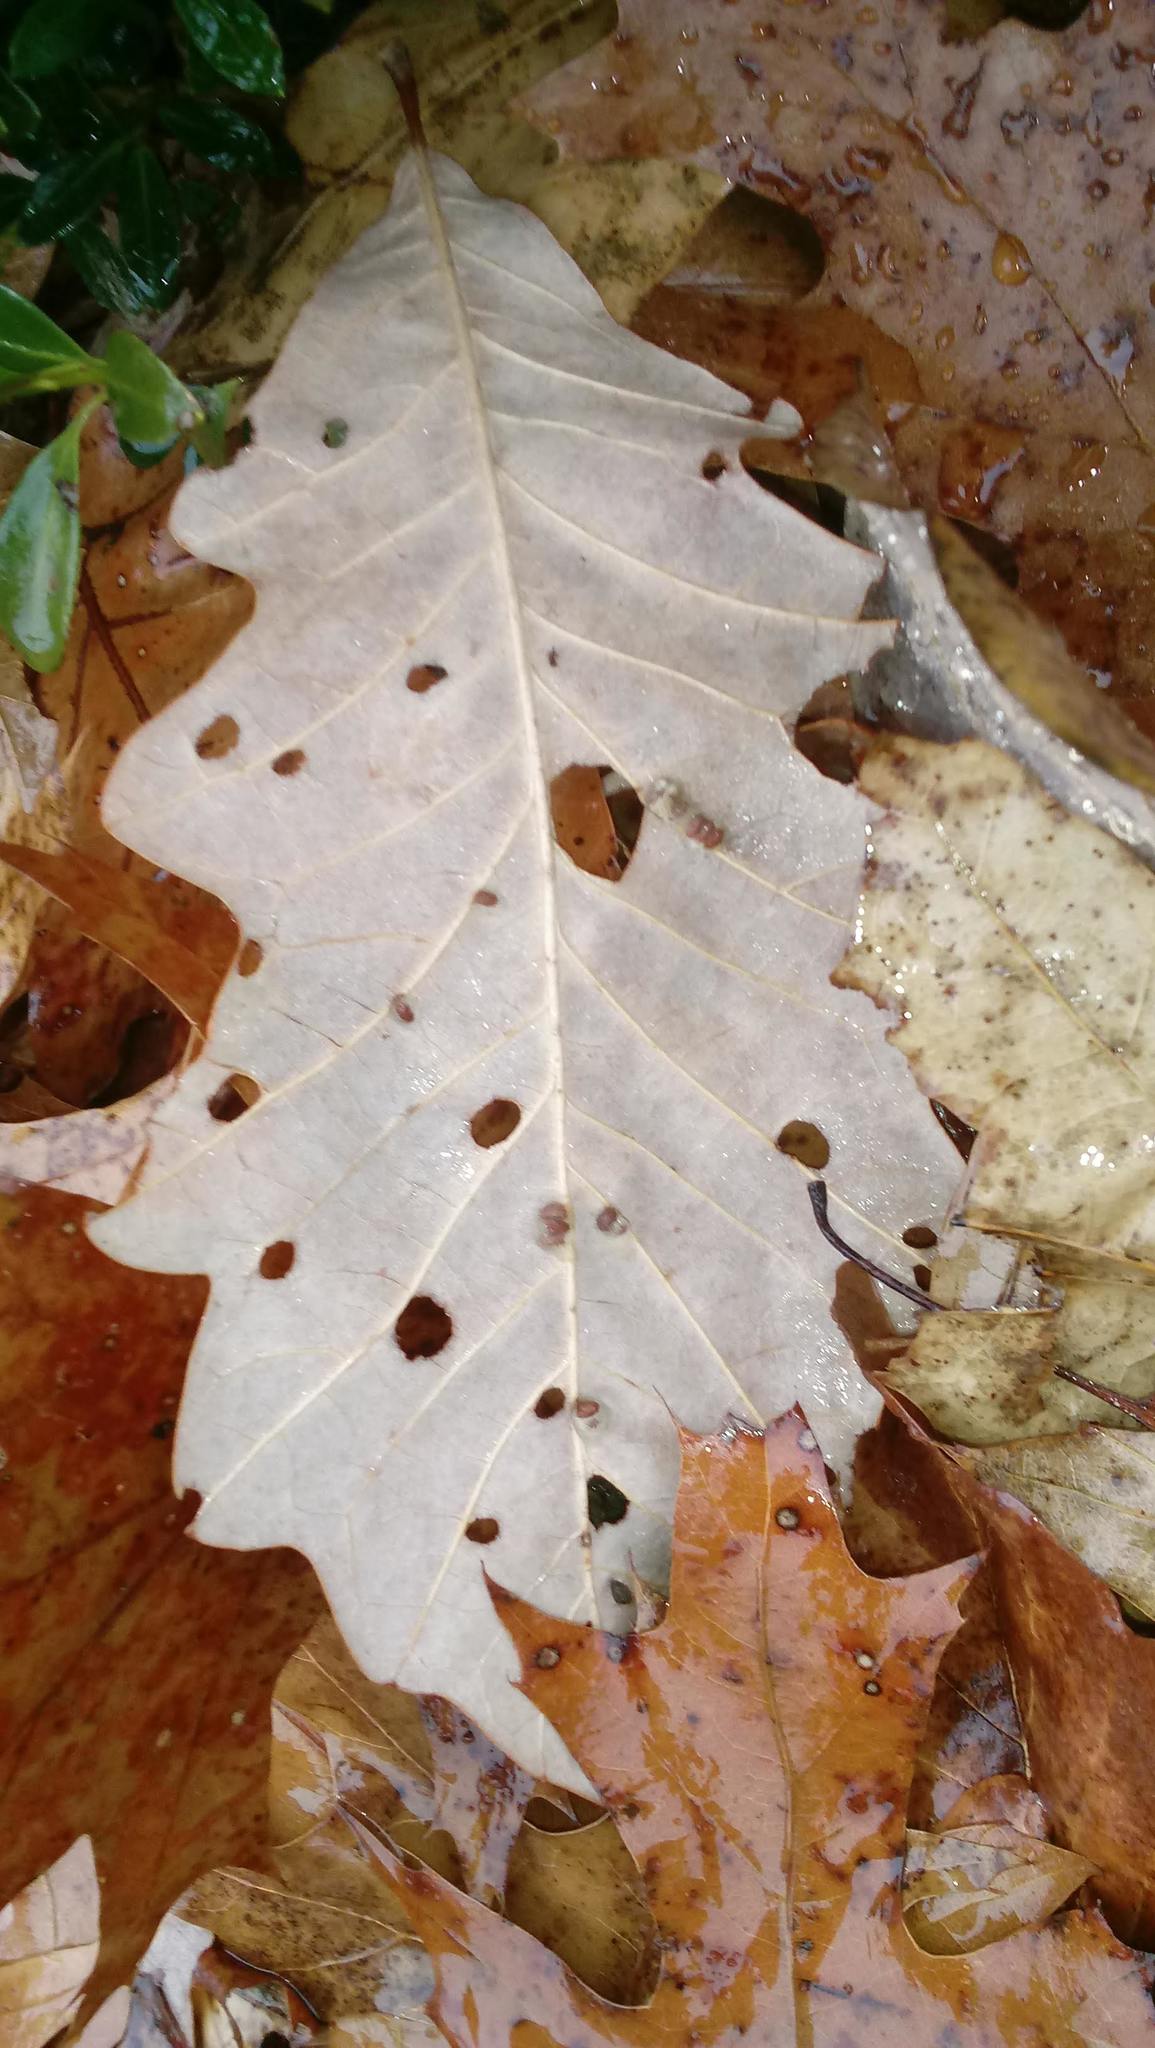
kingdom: Animalia
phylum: Arthropoda
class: Insecta
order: Hymenoptera
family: Cynipidae
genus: Andricus
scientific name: Andricus Druon ignotum
